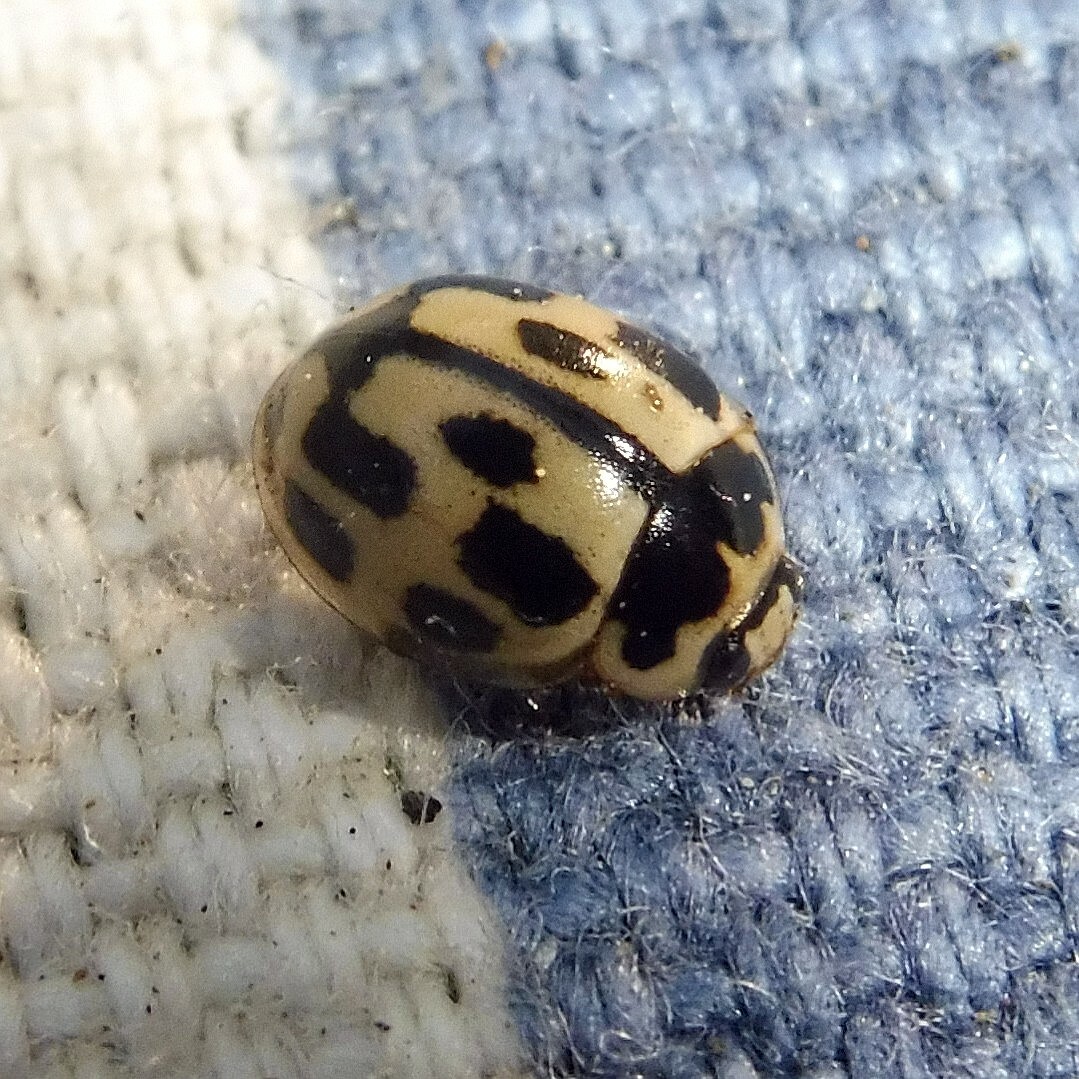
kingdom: Animalia
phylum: Arthropoda
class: Insecta
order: Coleoptera
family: Coccinellidae
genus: Propylaea
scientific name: Propylaea quatuordecimpunctata
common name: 14-spotted ladybird beetle
